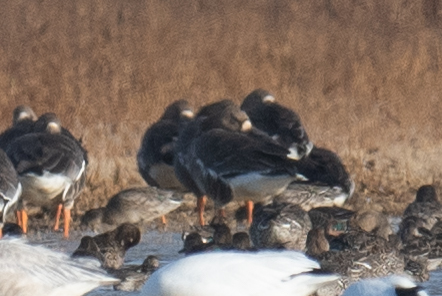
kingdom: Animalia
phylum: Chordata
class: Aves
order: Anseriformes
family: Anatidae
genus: Anser
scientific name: Anser albifrons
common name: Greater white-fronted goose
